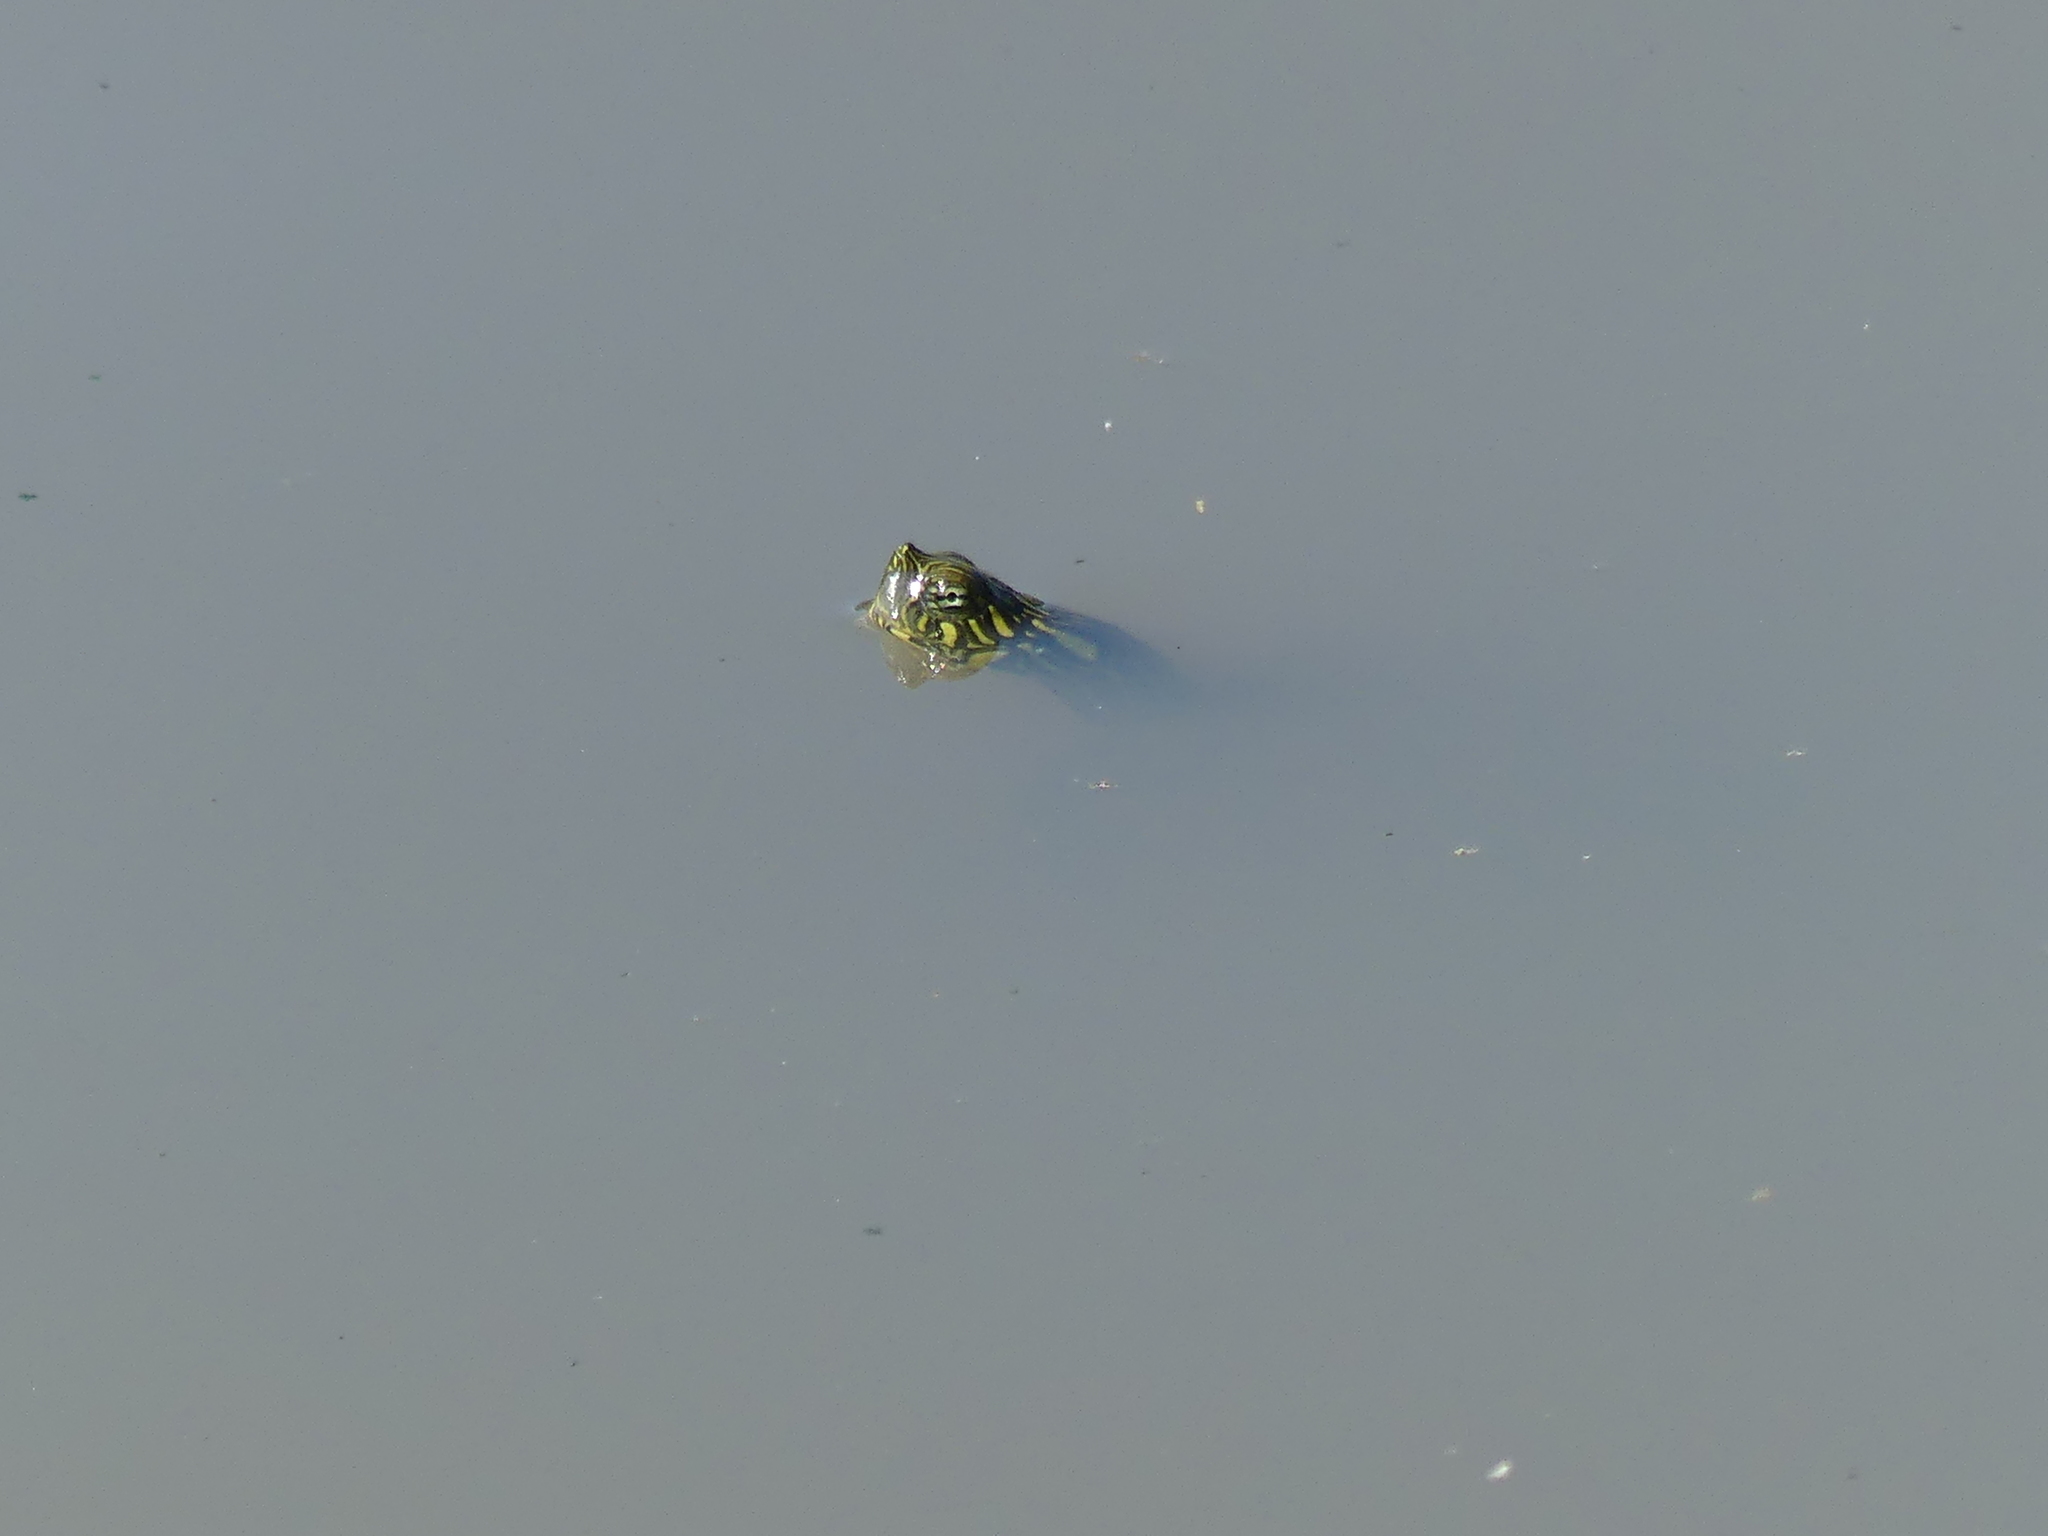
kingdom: Animalia
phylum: Chordata
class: Testudines
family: Emydidae
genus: Pseudemys
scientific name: Pseudemys texana
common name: Texas river cooter
